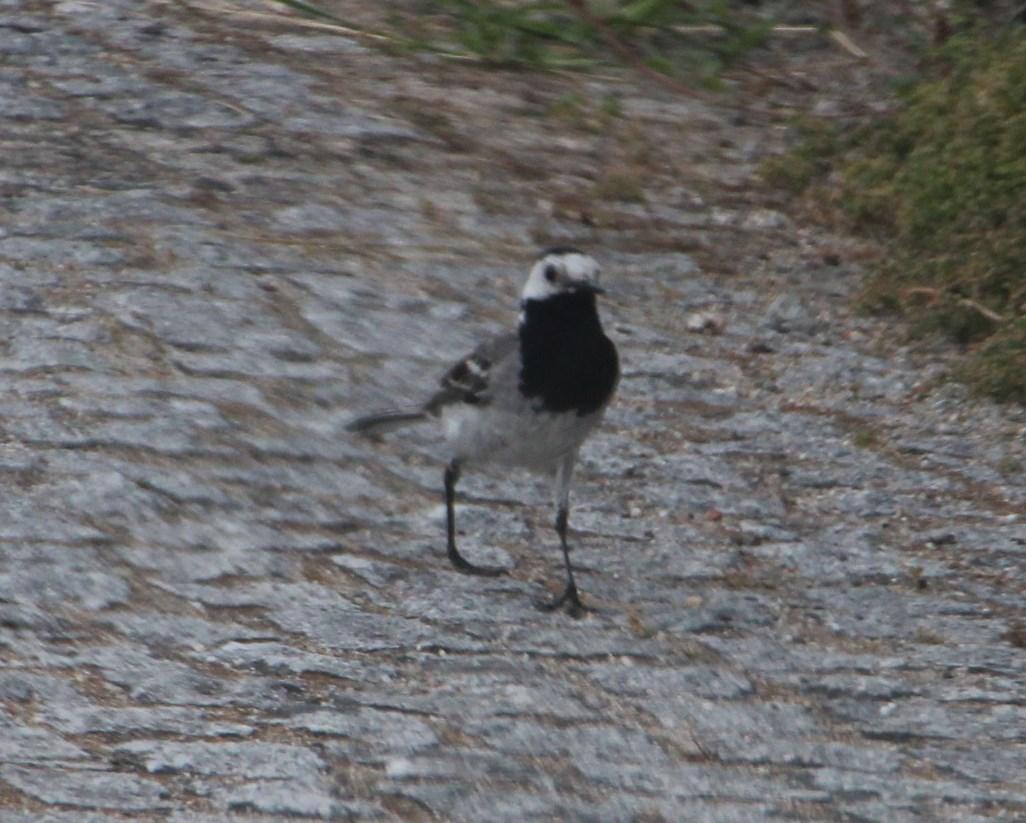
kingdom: Animalia
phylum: Chordata
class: Aves
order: Passeriformes
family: Motacillidae
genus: Motacilla
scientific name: Motacilla alba
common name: White wagtail
